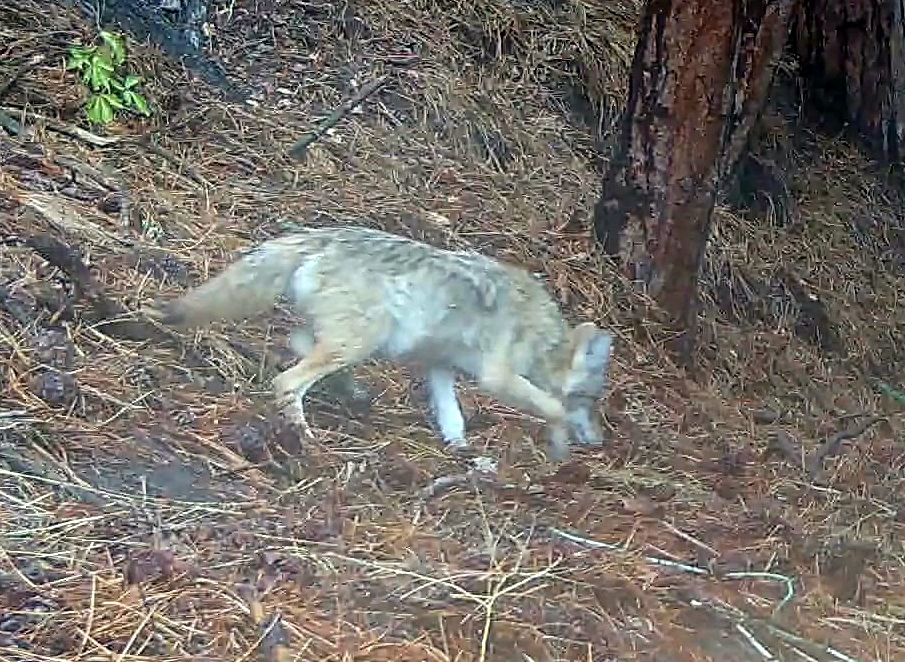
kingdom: Animalia
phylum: Chordata
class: Mammalia
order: Carnivora
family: Canidae
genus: Canis
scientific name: Canis latrans
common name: Coyote
